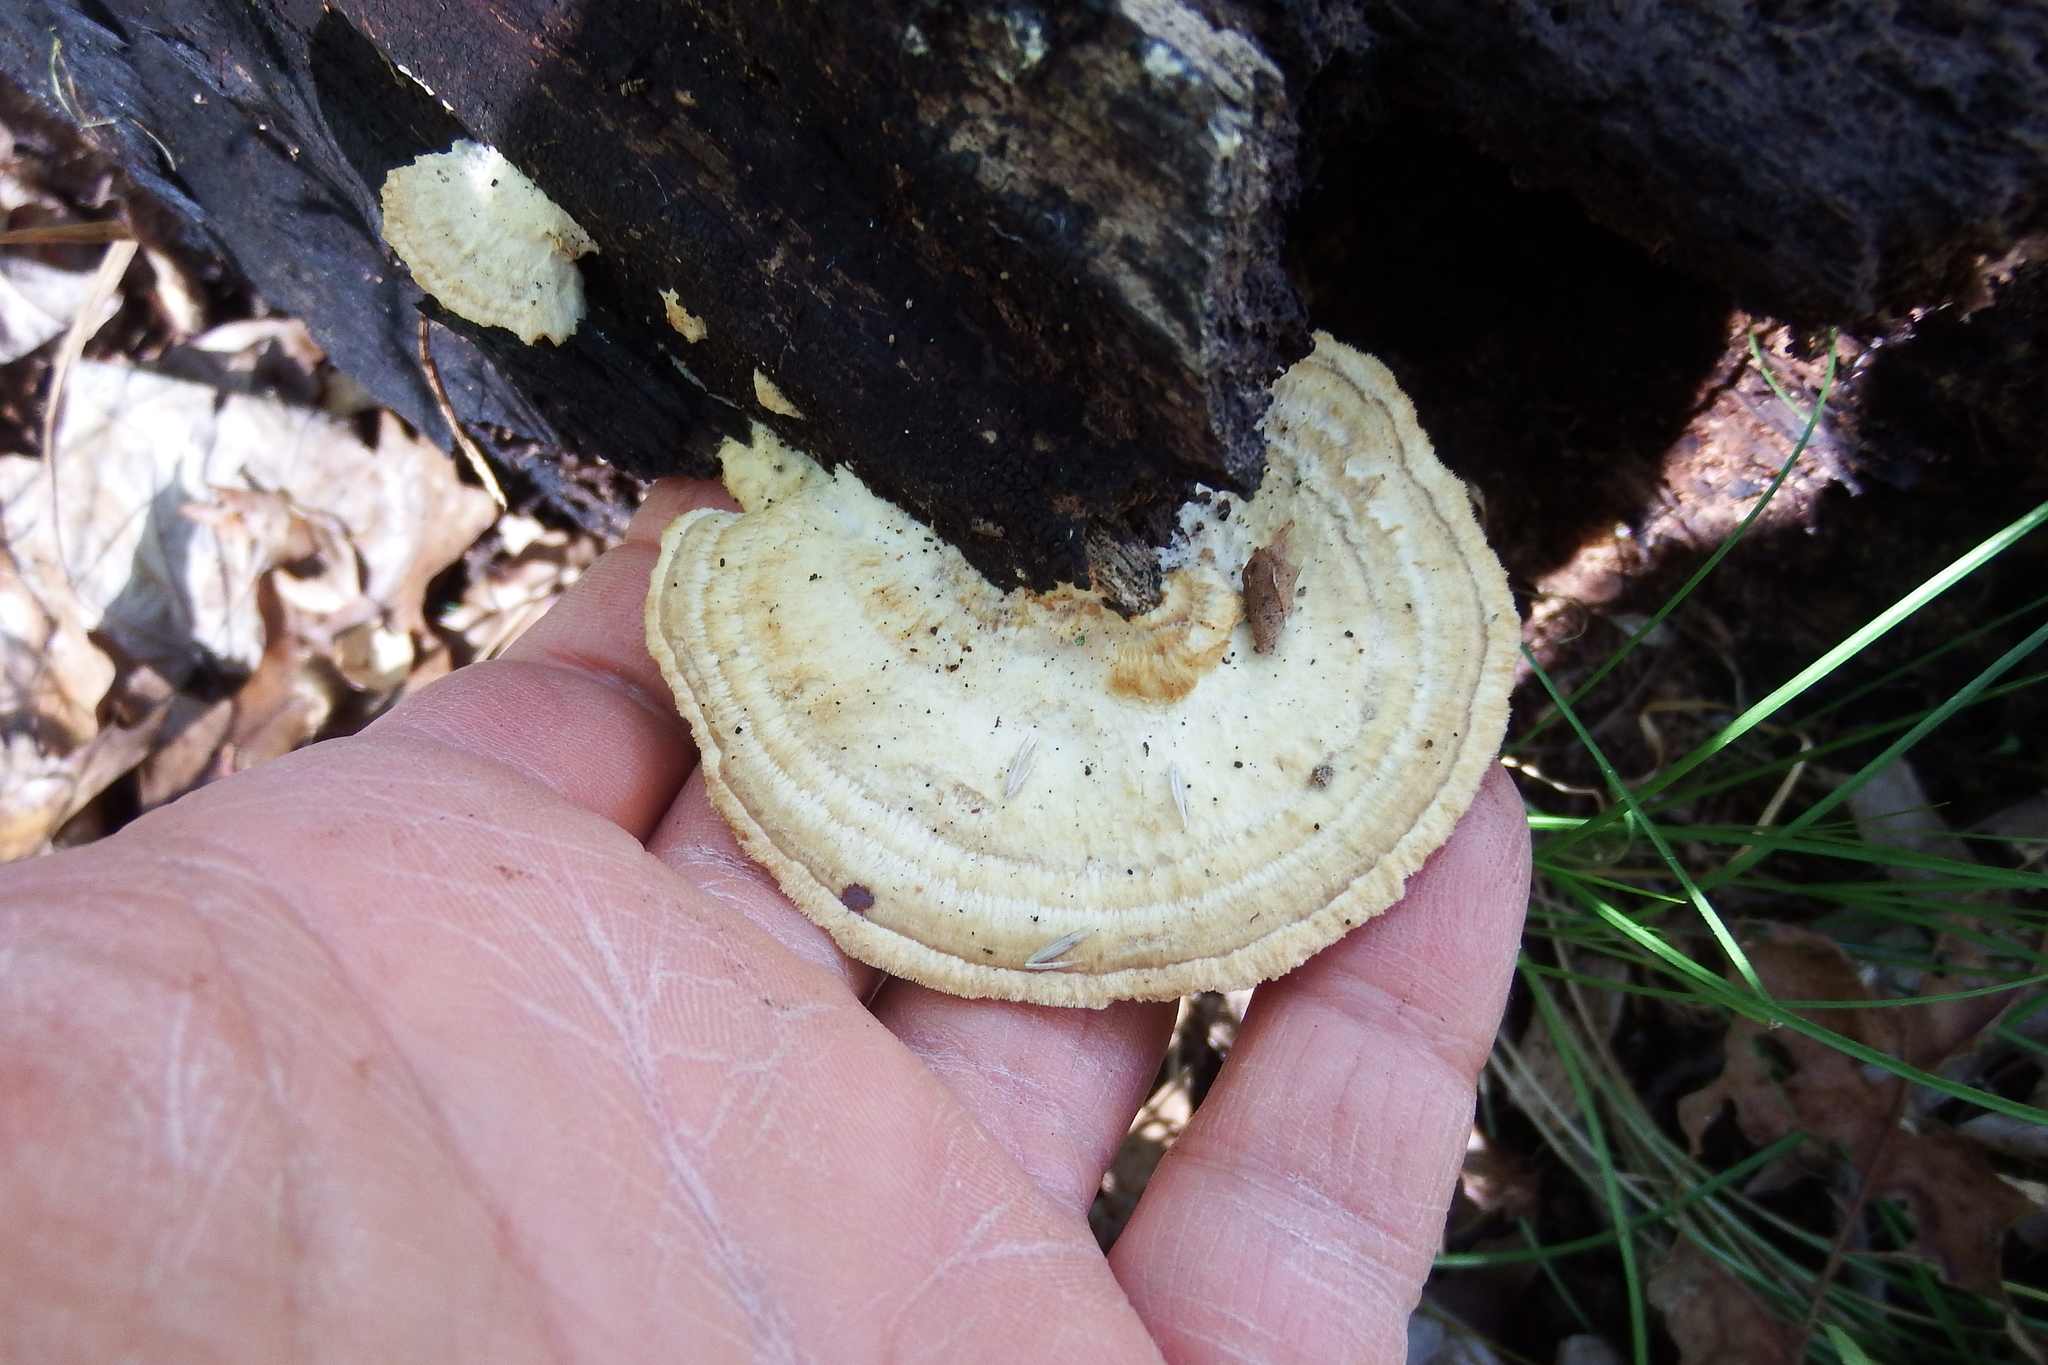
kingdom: Fungi
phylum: Basidiomycota
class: Agaricomycetes
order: Polyporales
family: Polyporaceae
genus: Daedaleopsis
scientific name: Daedaleopsis confragosa
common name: Blushing bracket
